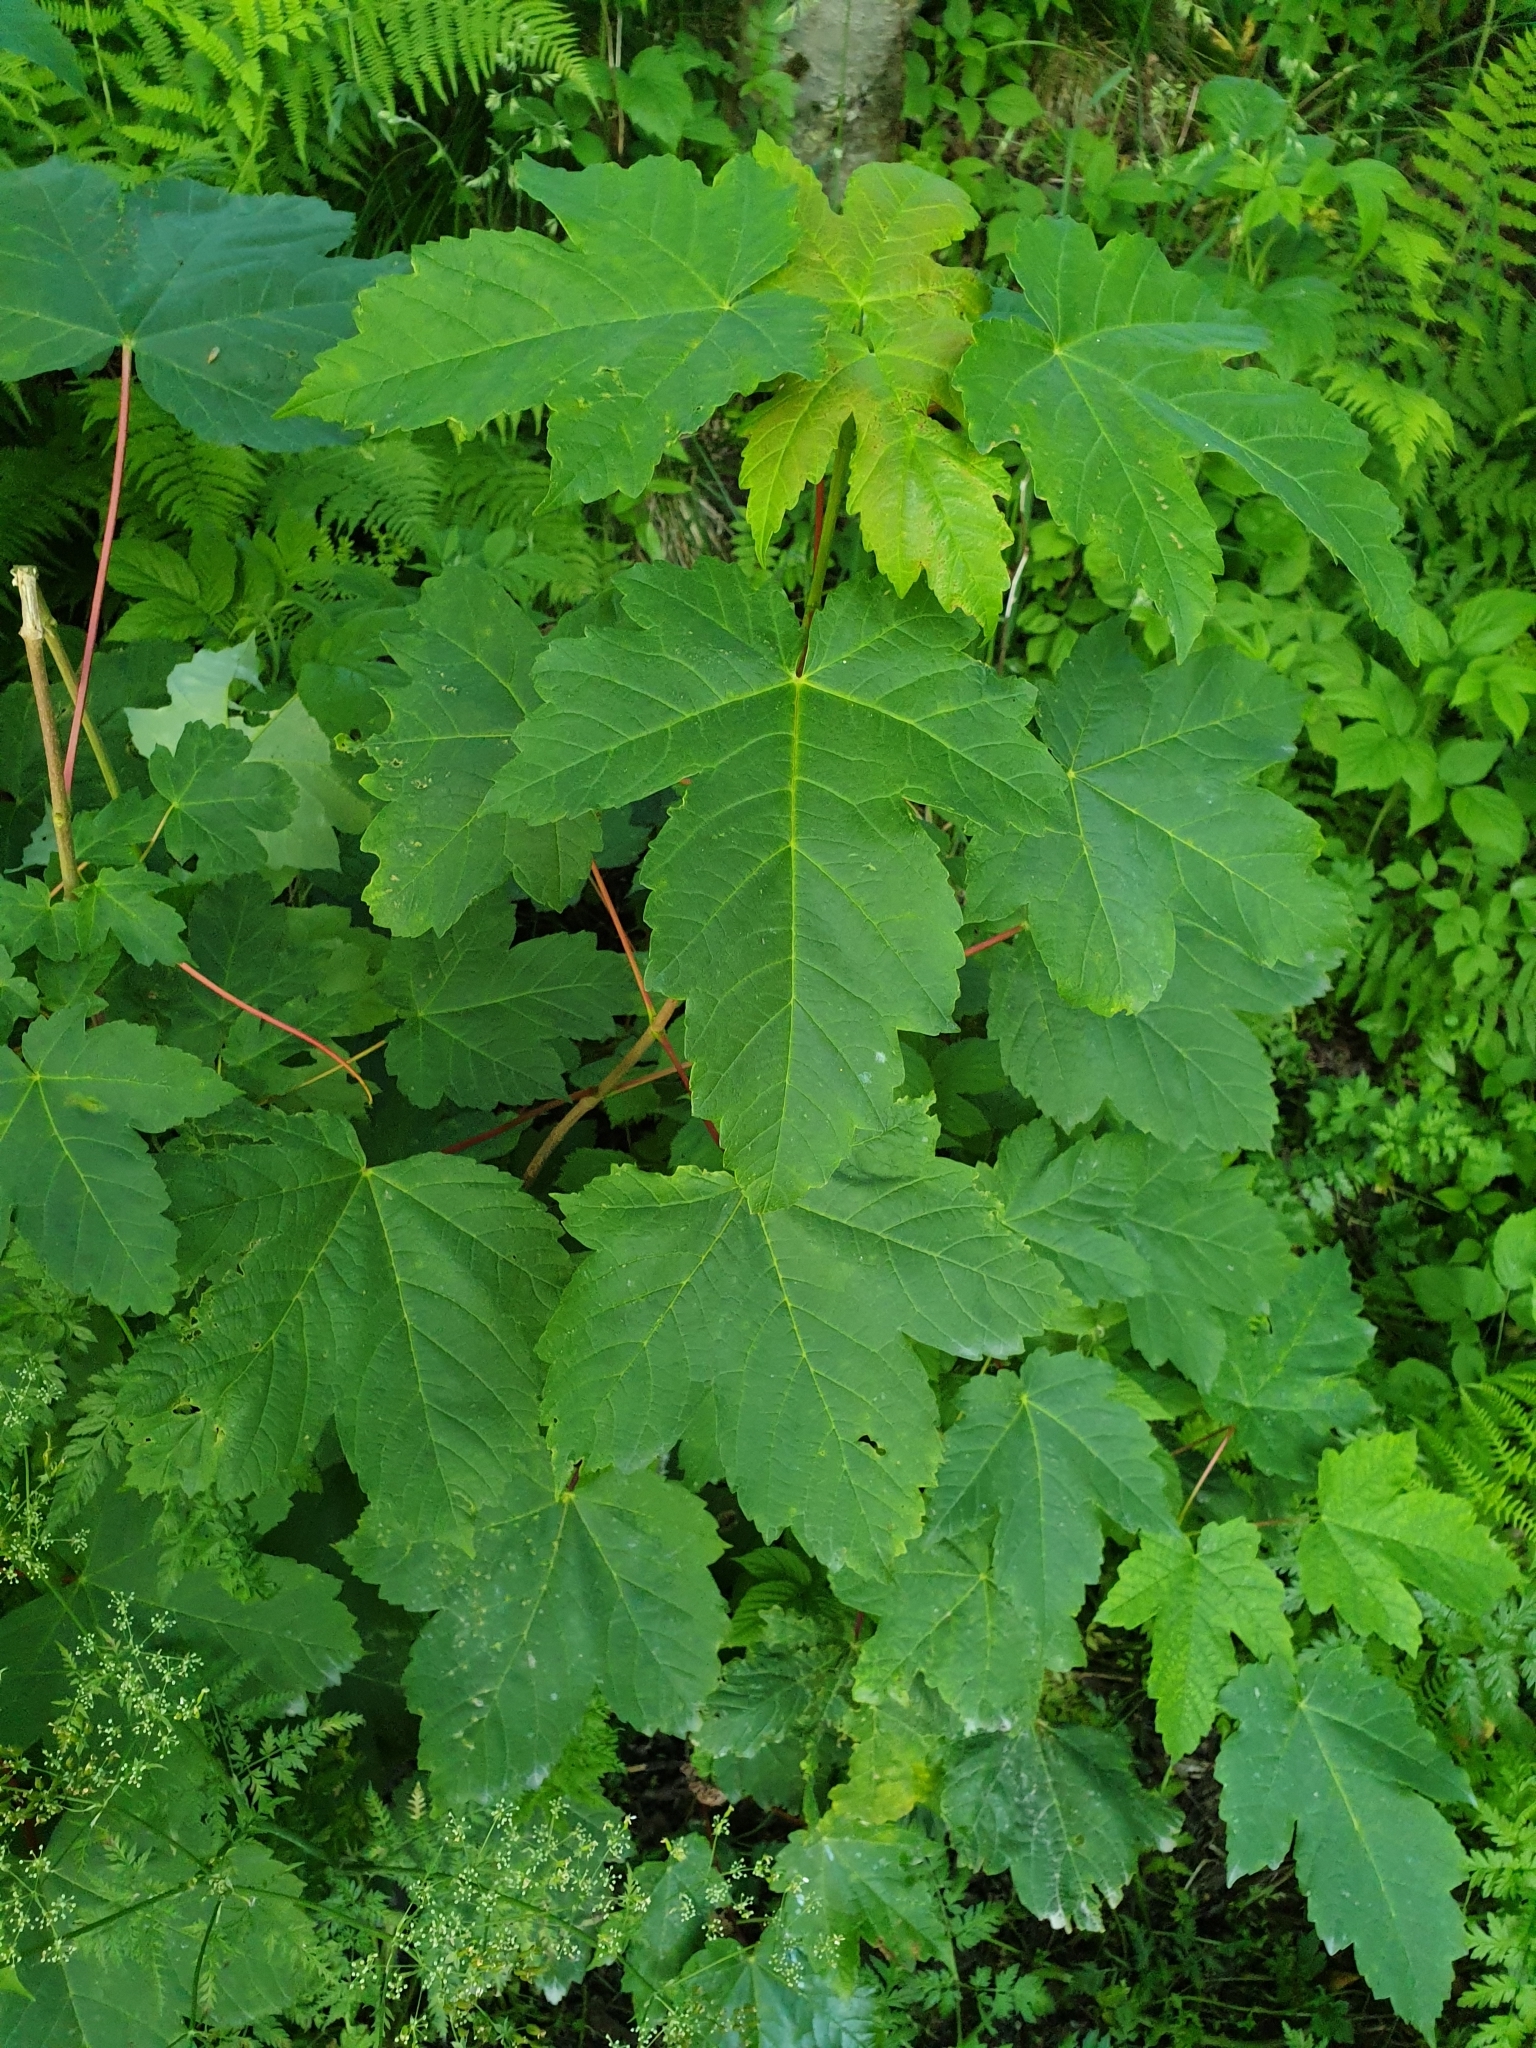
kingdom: Plantae
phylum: Tracheophyta
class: Magnoliopsida
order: Sapindales
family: Sapindaceae
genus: Acer
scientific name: Acer pseudoplatanus
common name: Sycamore
